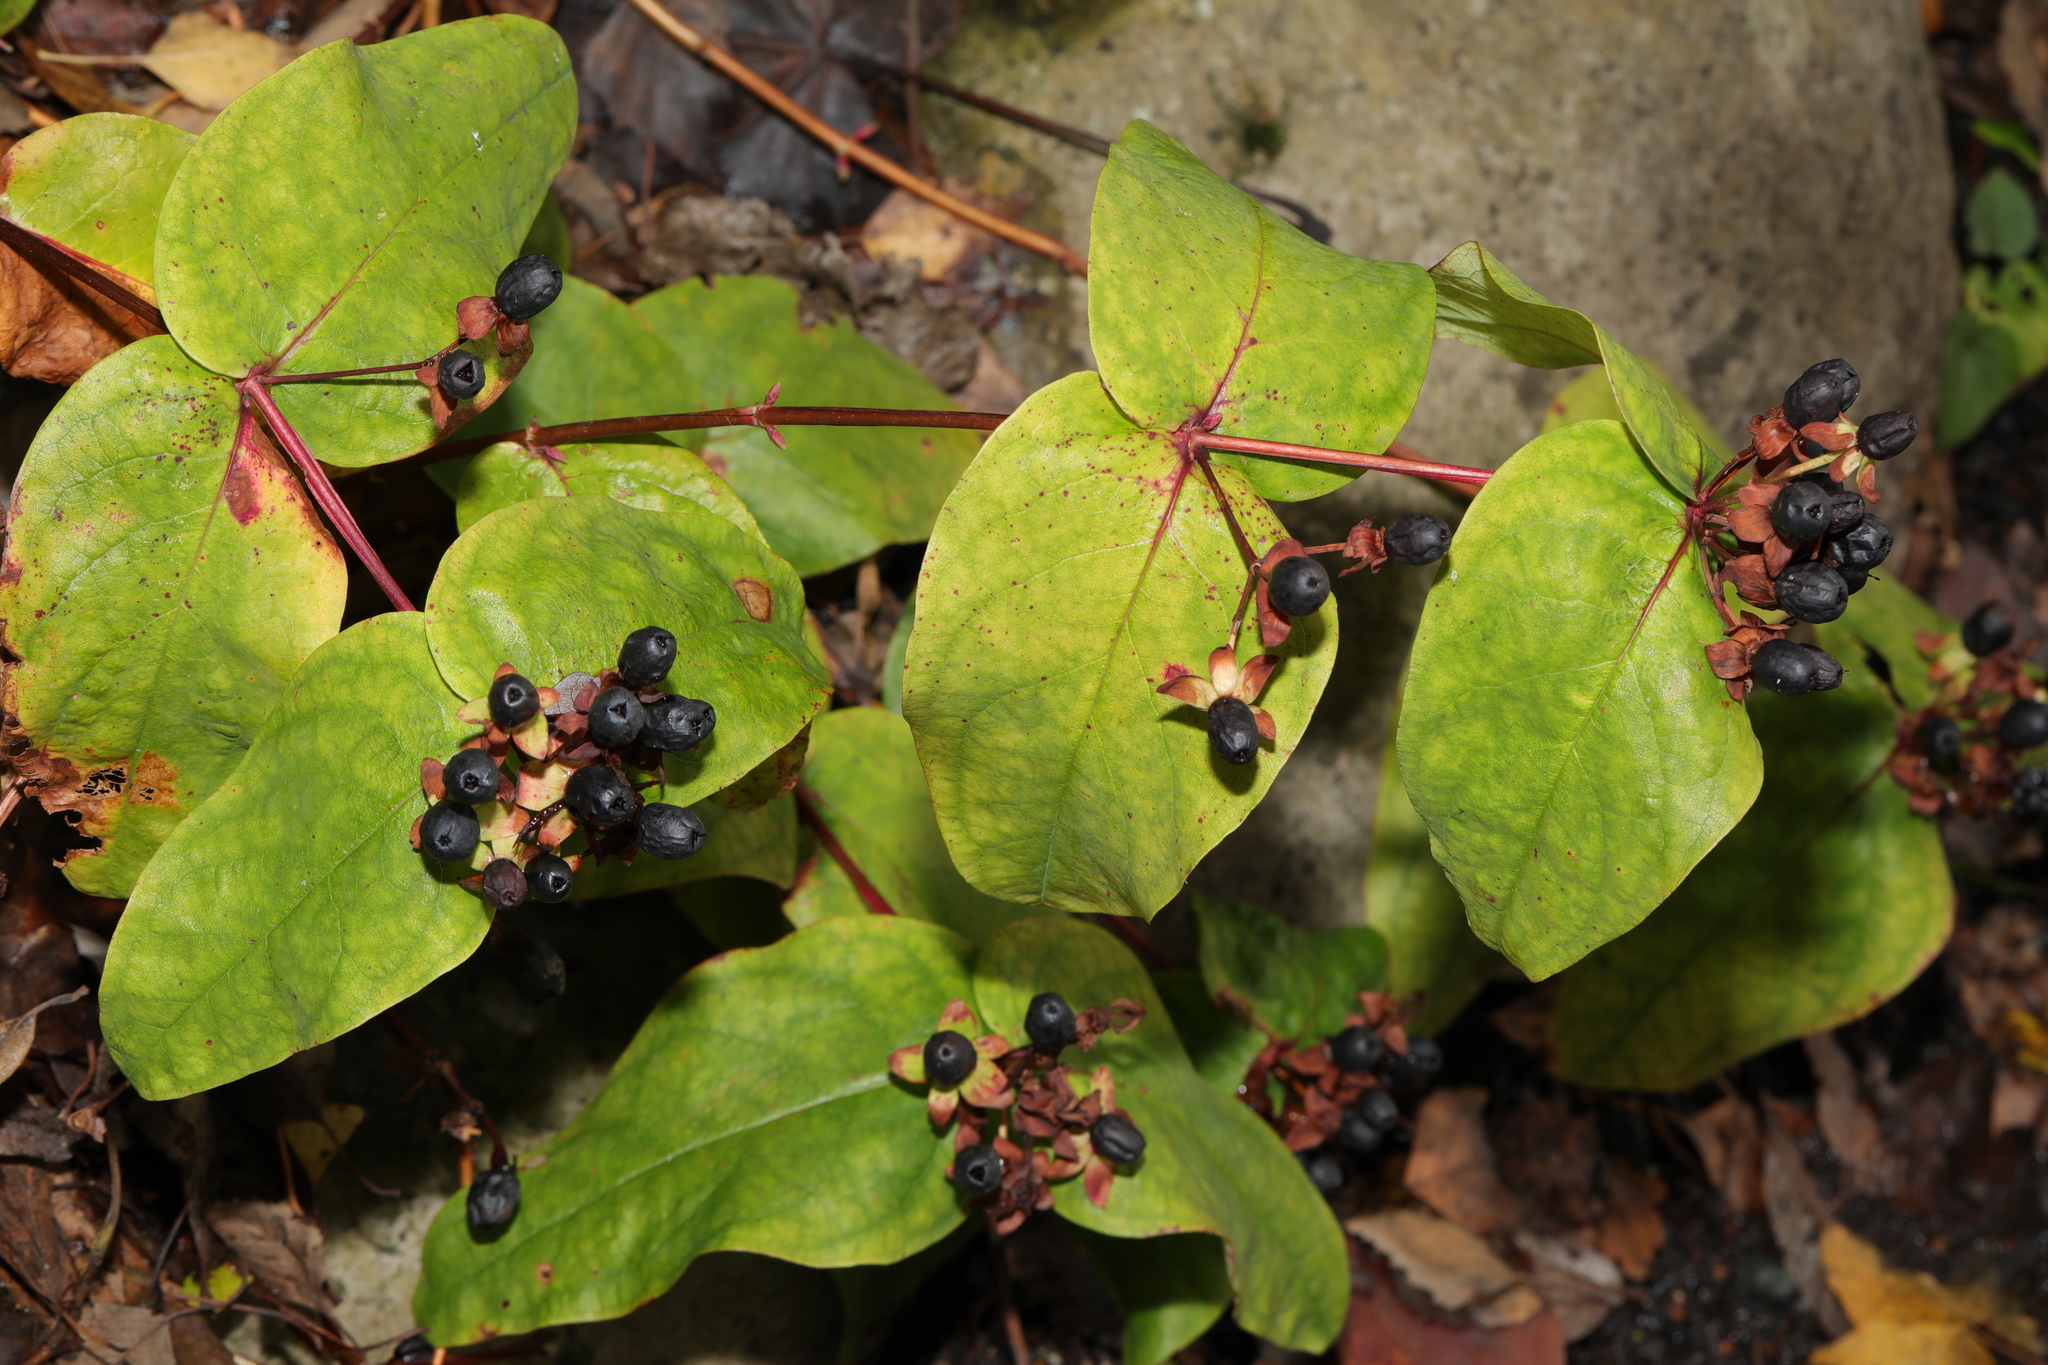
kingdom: Plantae
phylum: Tracheophyta
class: Magnoliopsida
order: Malpighiales
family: Hypericaceae
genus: Hypericum
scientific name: Hypericum androsaemum
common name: Sweet-amber
